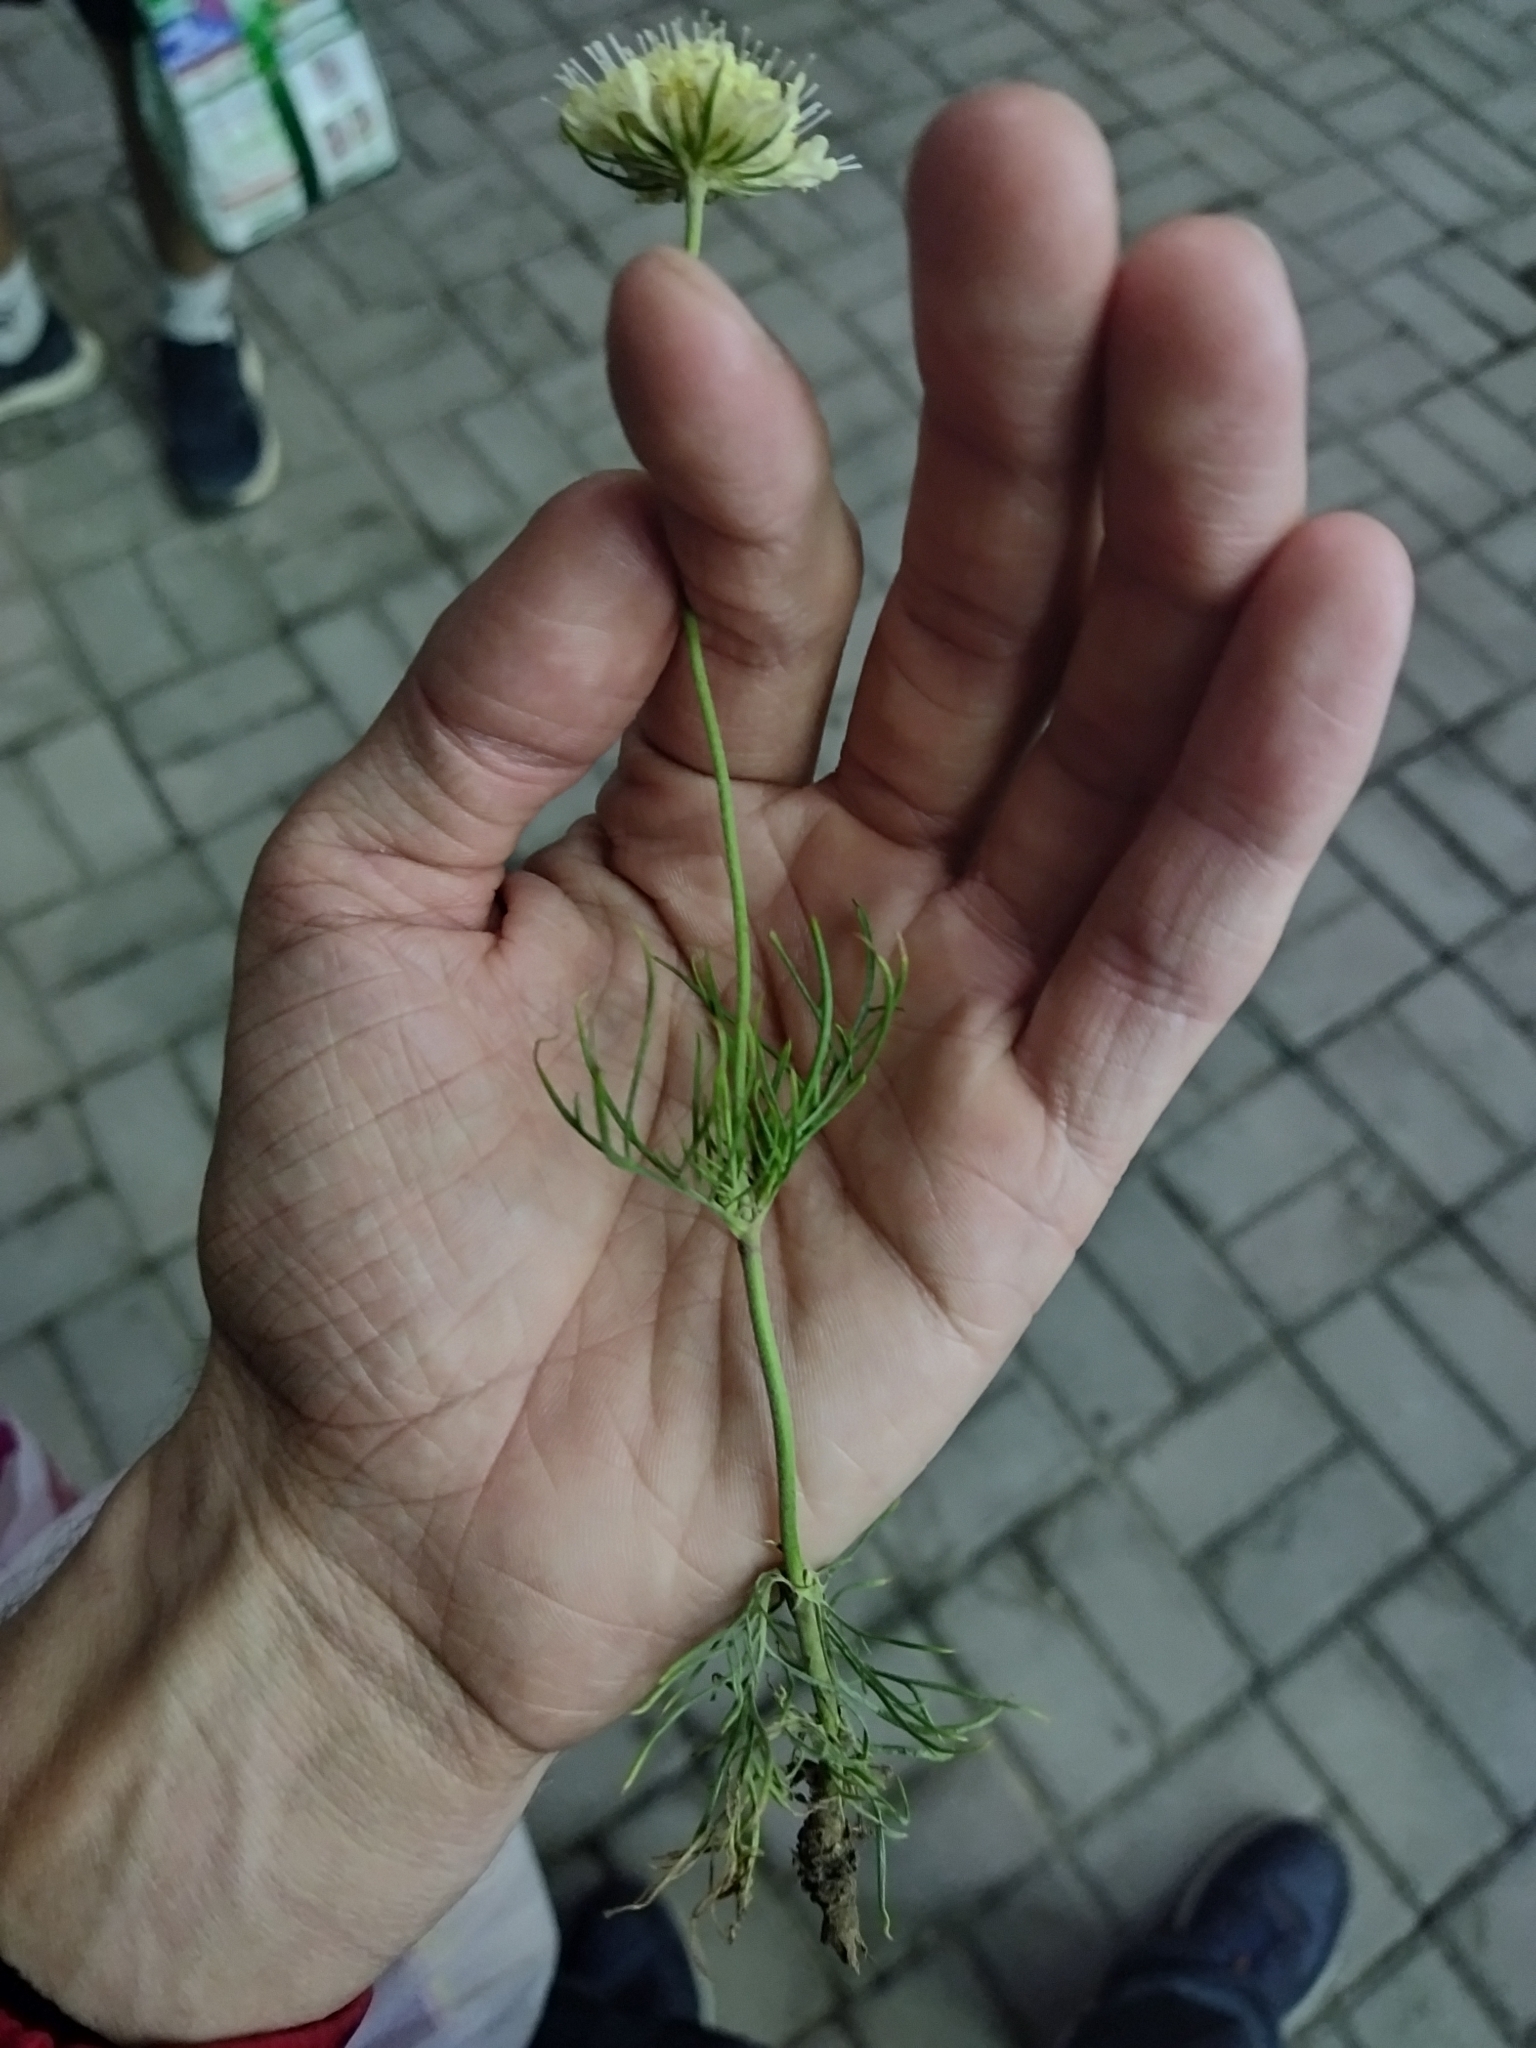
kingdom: Plantae
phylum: Tracheophyta
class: Magnoliopsida
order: Dipsacales
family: Caprifoliaceae
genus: Scabiosa
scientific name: Scabiosa ochroleuca
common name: Cream pincushions
